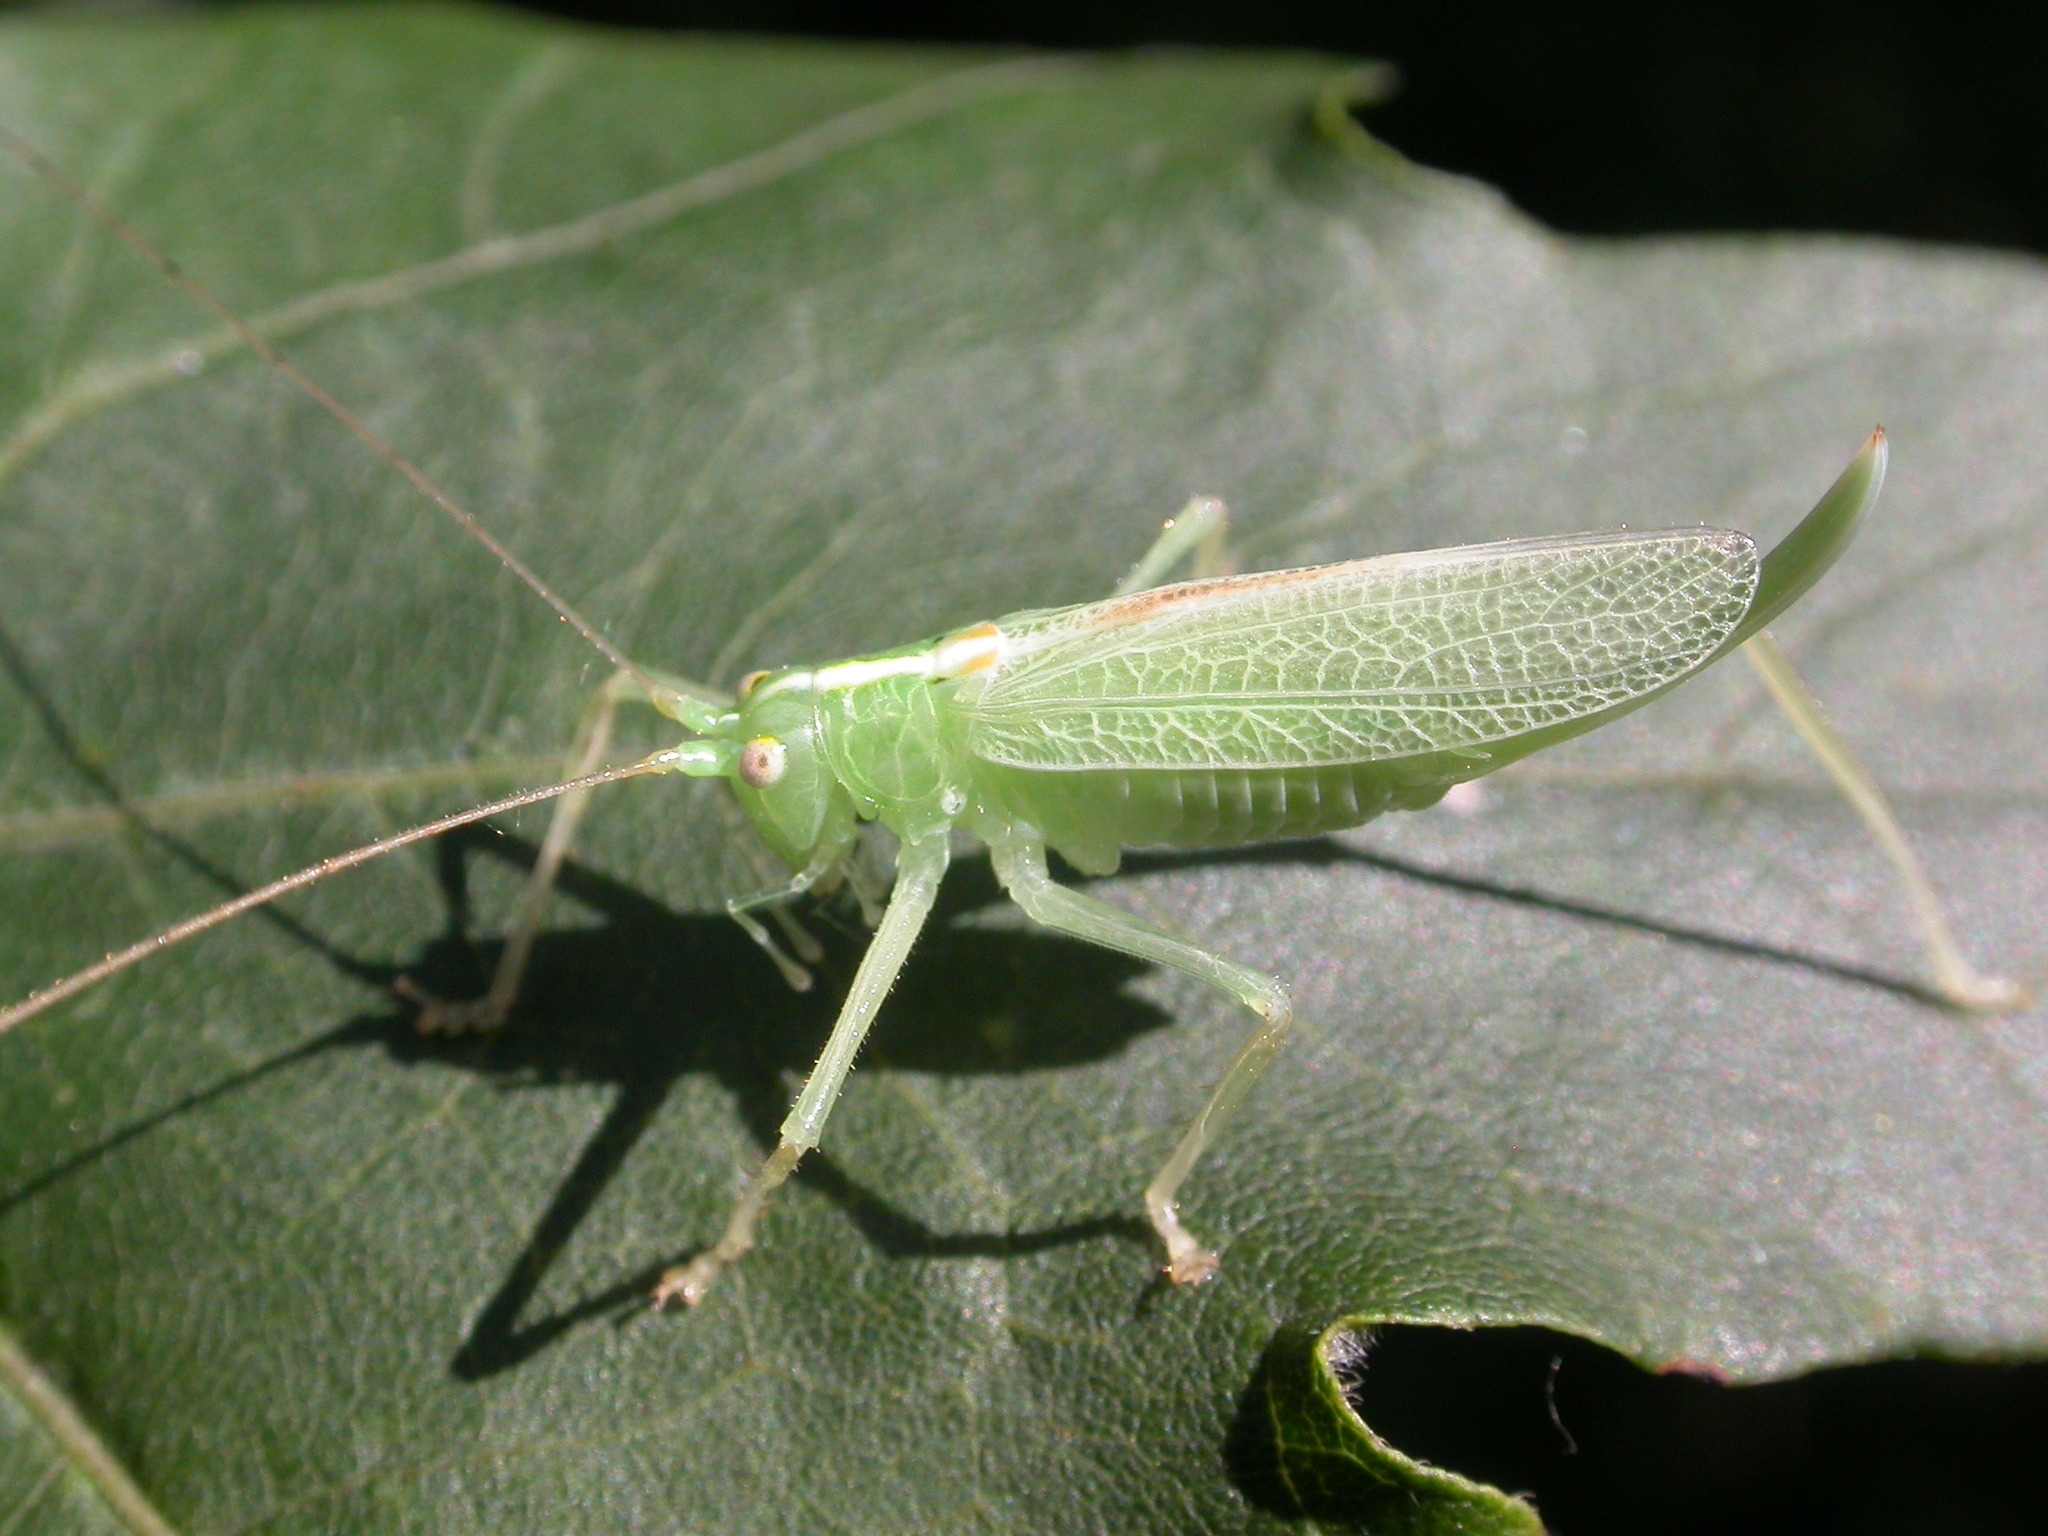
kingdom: Animalia
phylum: Arthropoda
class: Insecta
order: Orthoptera
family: Tettigoniidae
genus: Meconema
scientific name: Meconema thalassinum
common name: Oak bush-cricket
